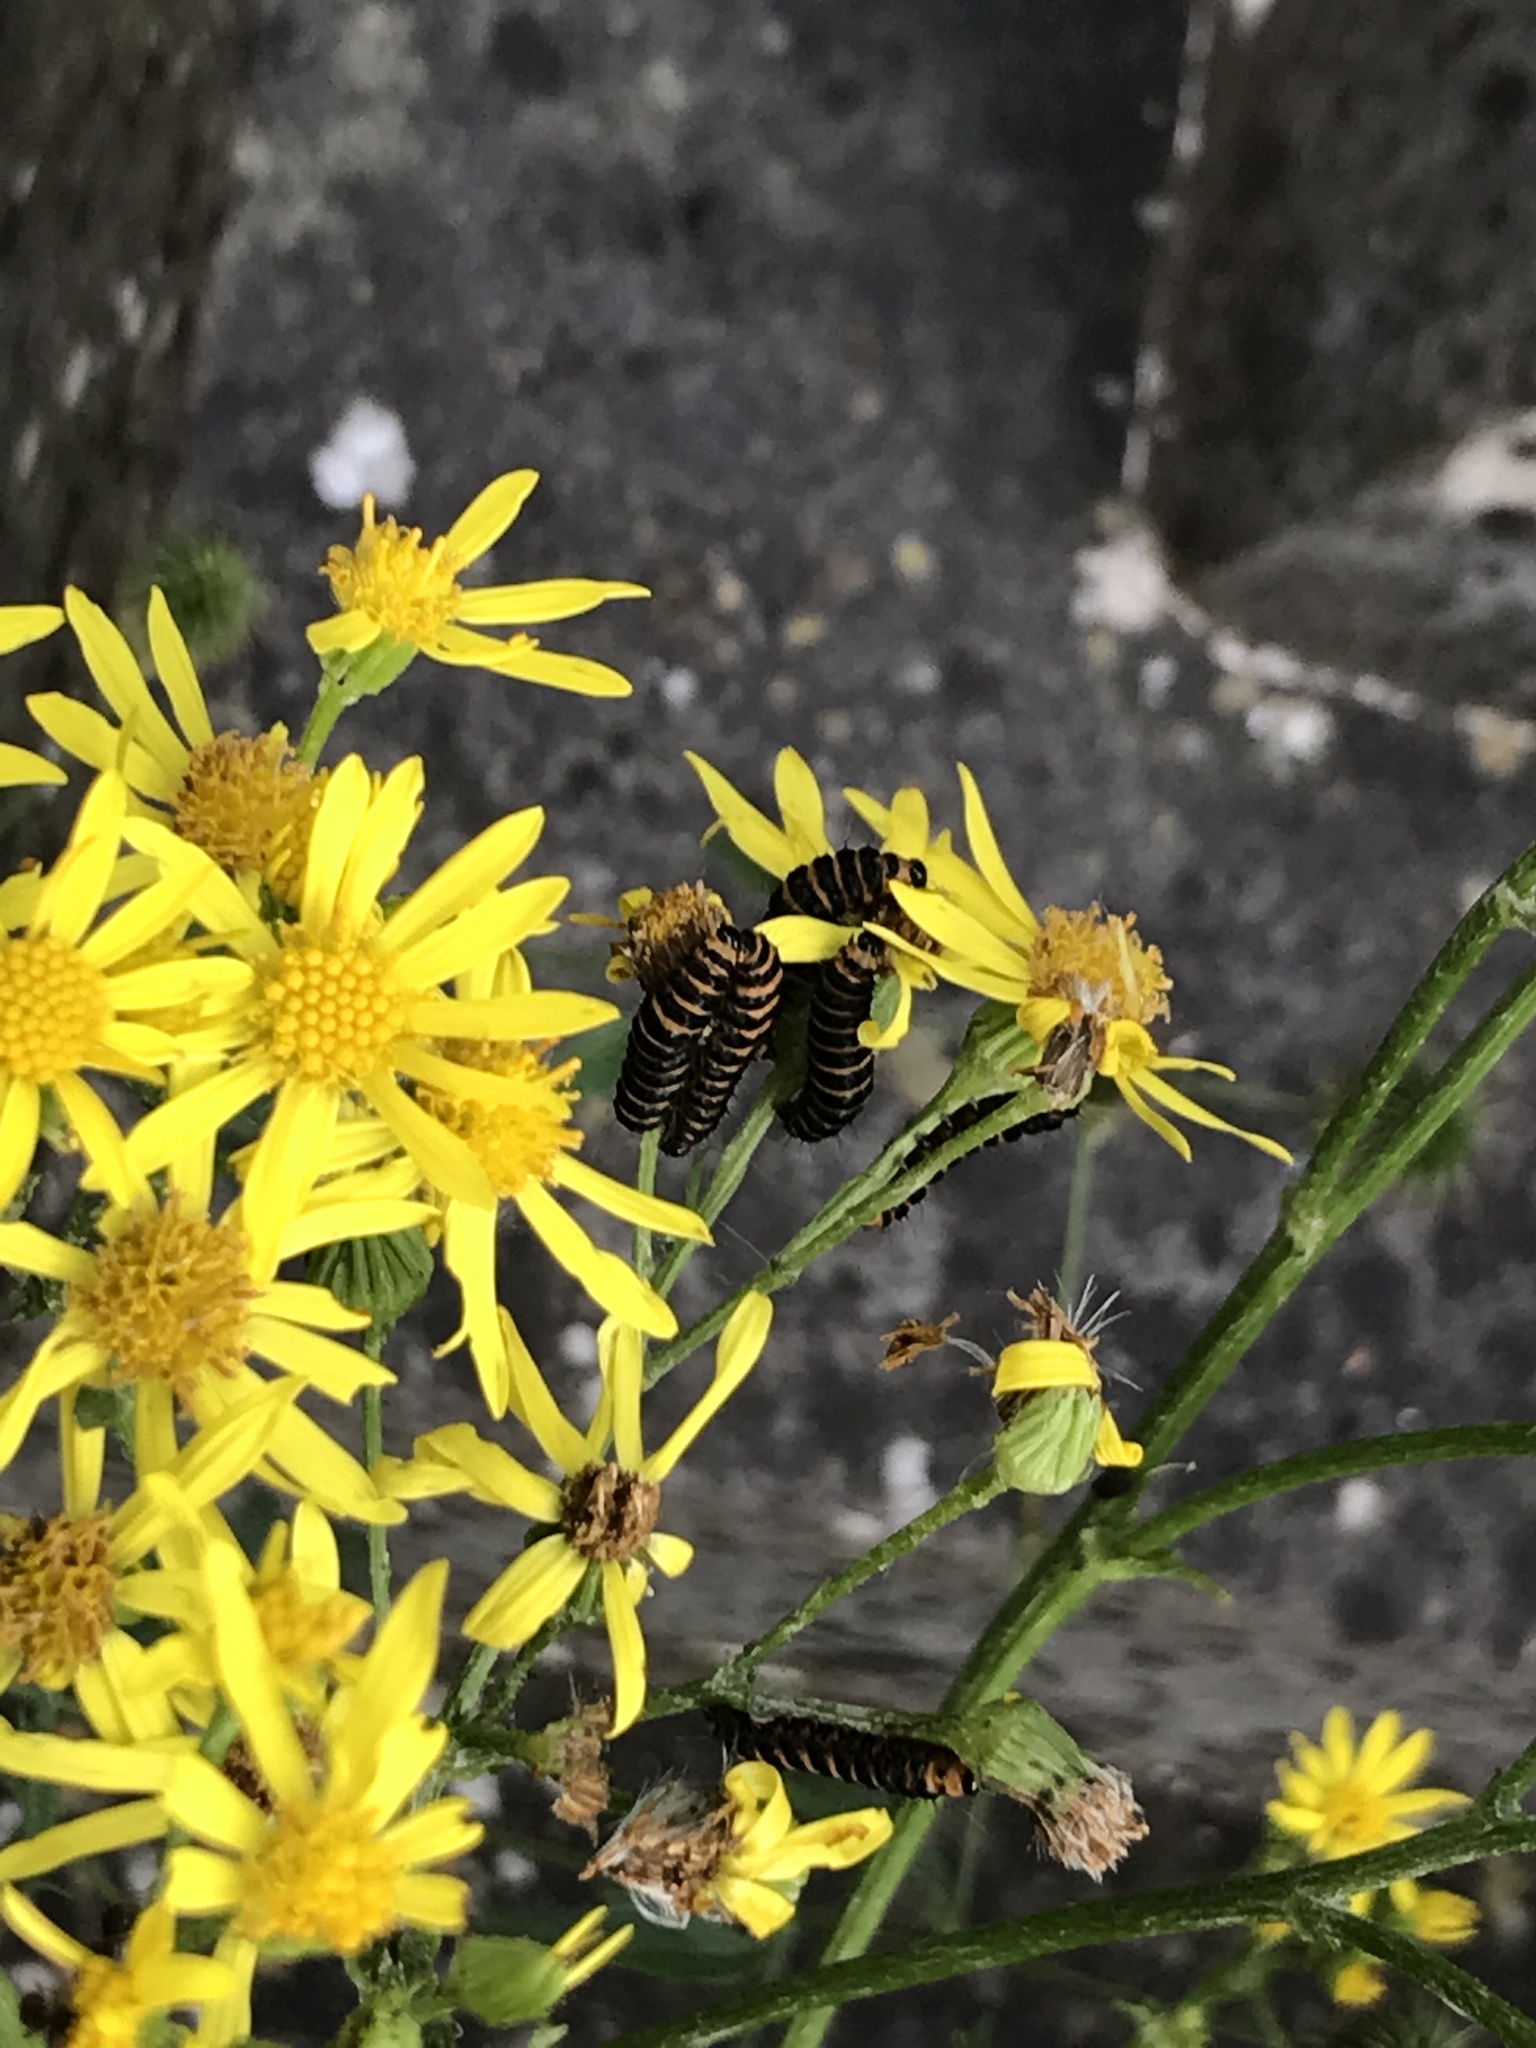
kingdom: Animalia
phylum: Arthropoda
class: Insecta
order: Lepidoptera
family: Erebidae
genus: Tyria
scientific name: Tyria jacobaeae
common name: Cinnabar
